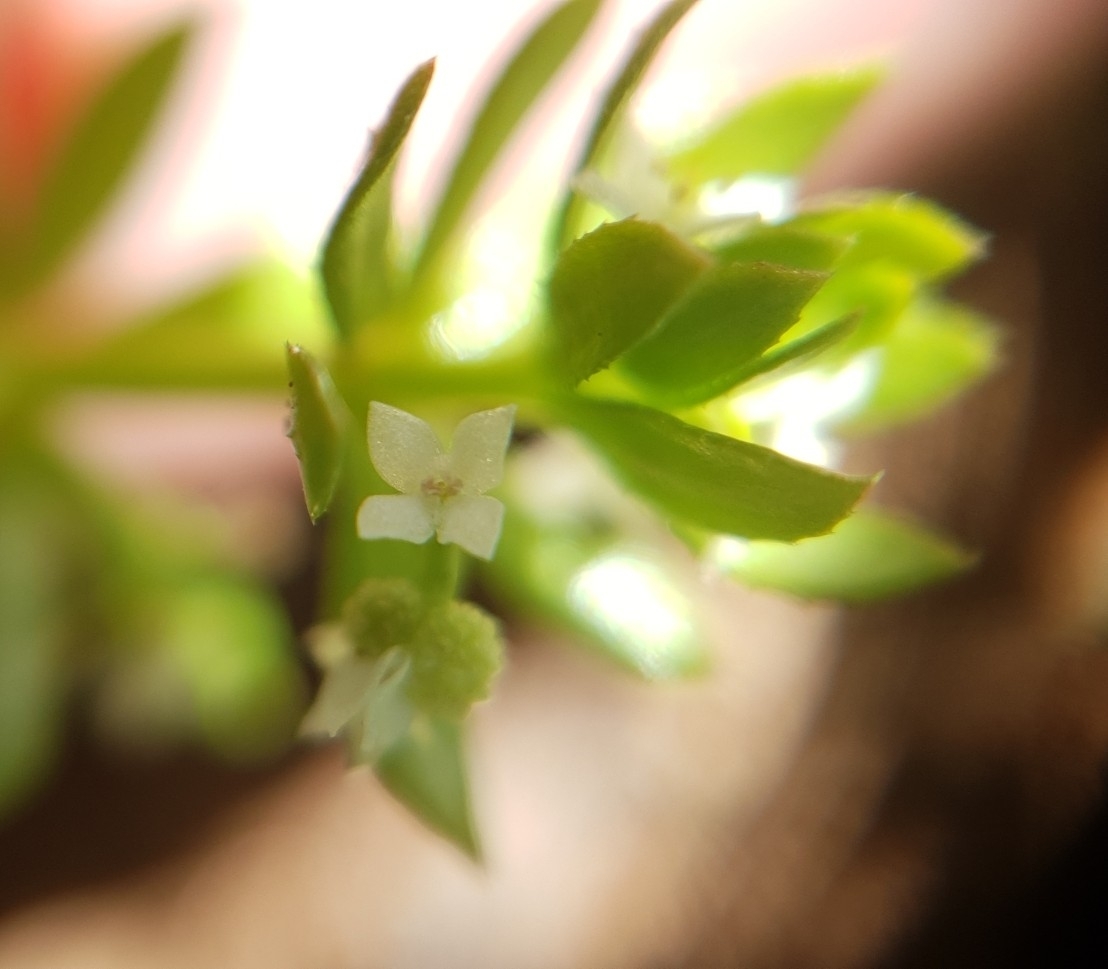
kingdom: Plantae
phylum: Tracheophyta
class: Magnoliopsida
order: Gentianales
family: Rubiaceae
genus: Galium
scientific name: Galium verrucosum
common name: Warty bedstraw
